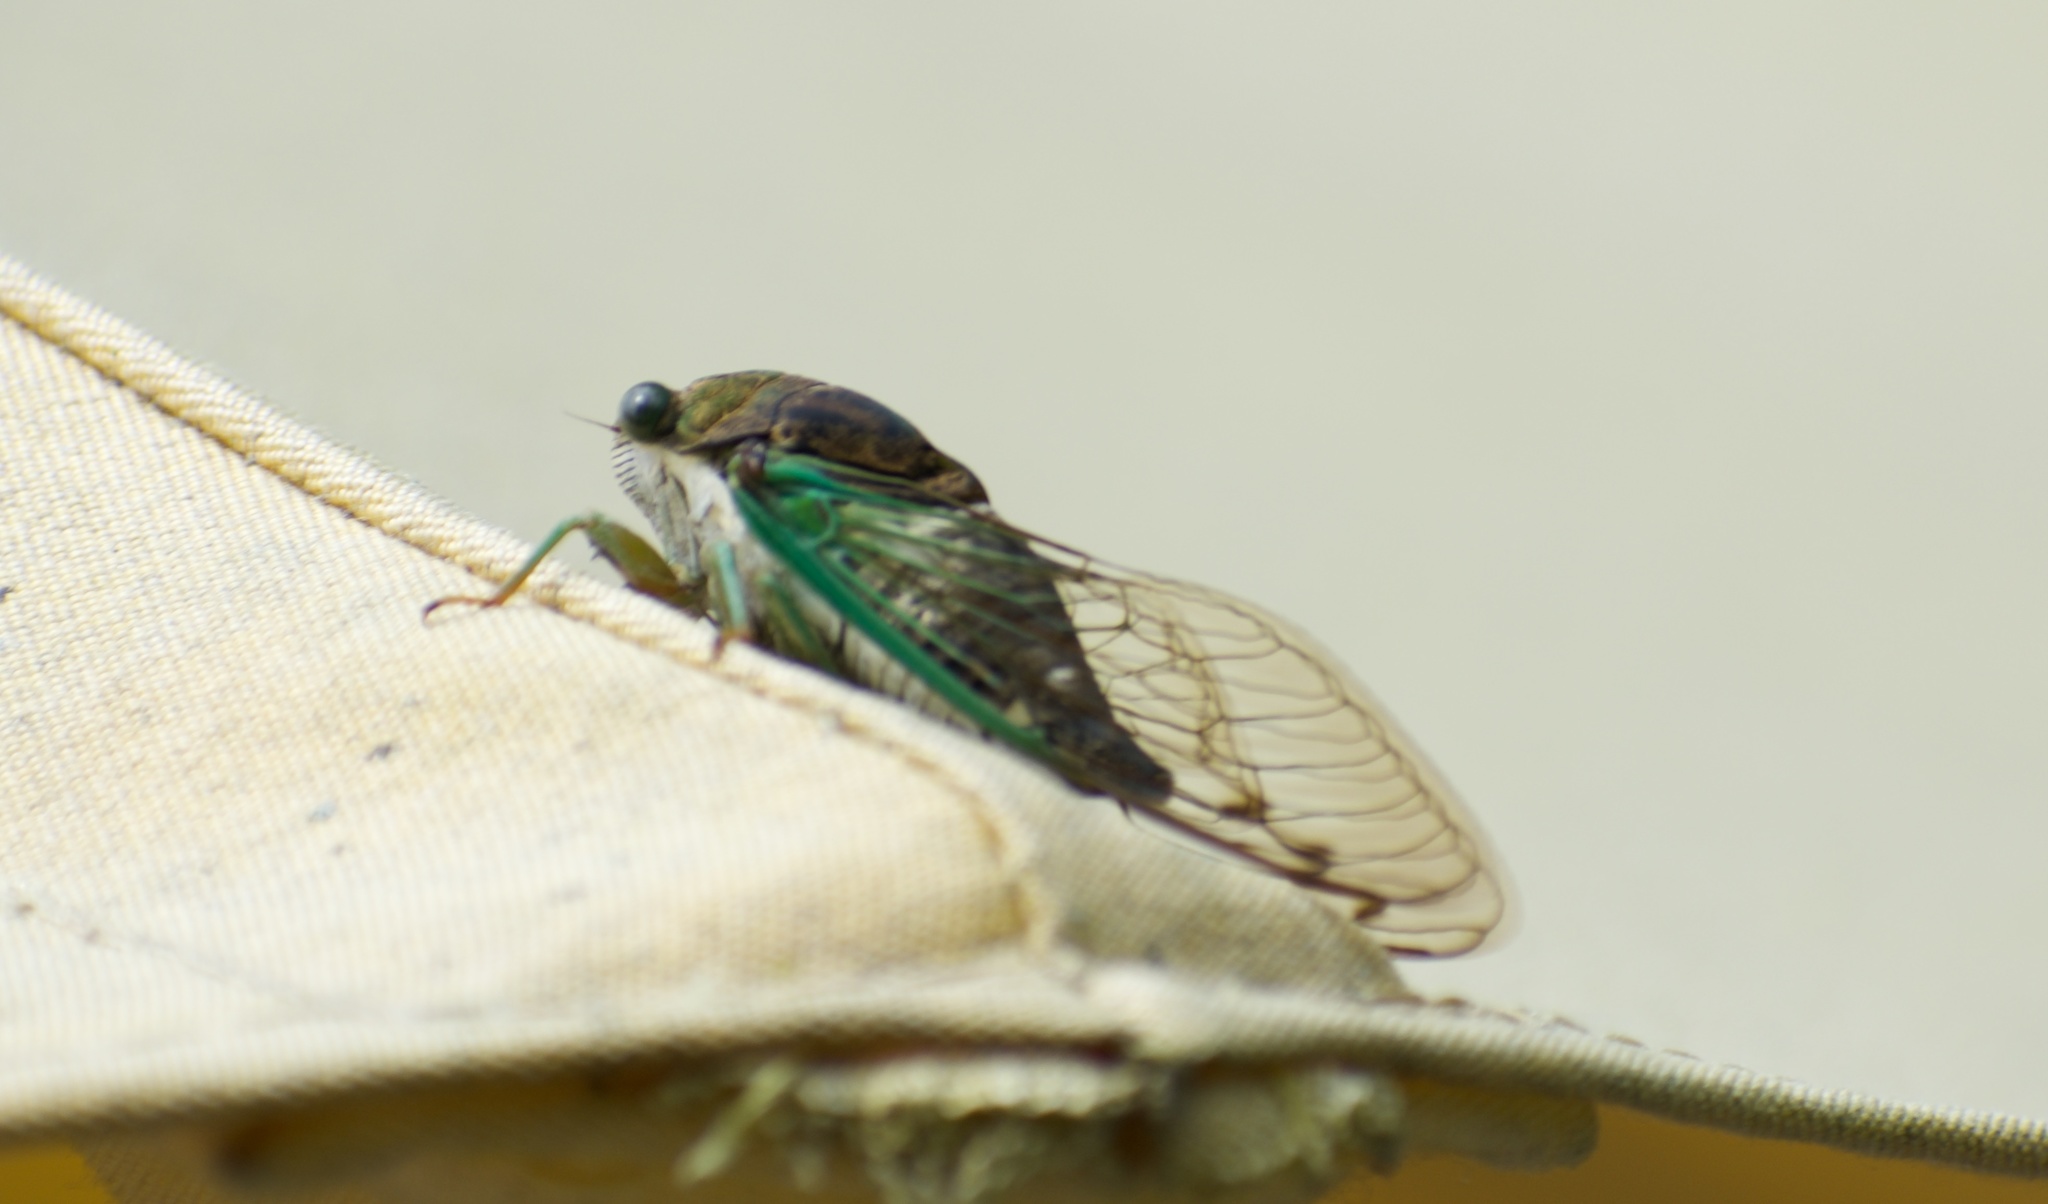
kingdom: Animalia
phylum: Arthropoda
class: Insecta
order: Hemiptera
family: Cicadidae
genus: Neotibicen
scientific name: Neotibicen tibicen
